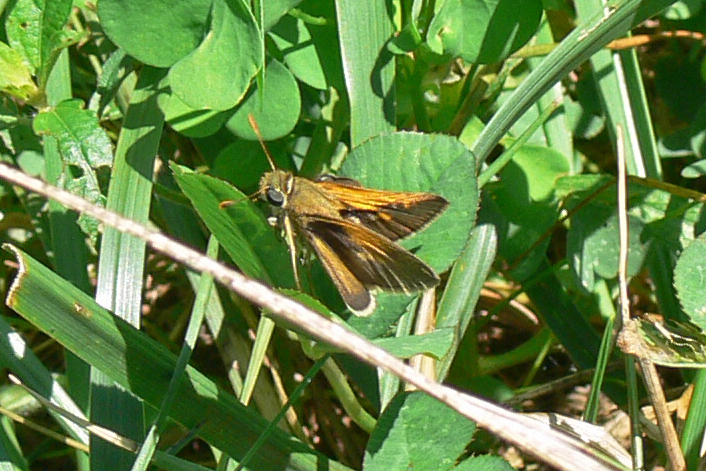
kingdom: Animalia
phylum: Arthropoda
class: Insecta
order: Lepidoptera
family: Hesperiidae
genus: Polites
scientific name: Polites themistocles
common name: Tawny-edged skipper
